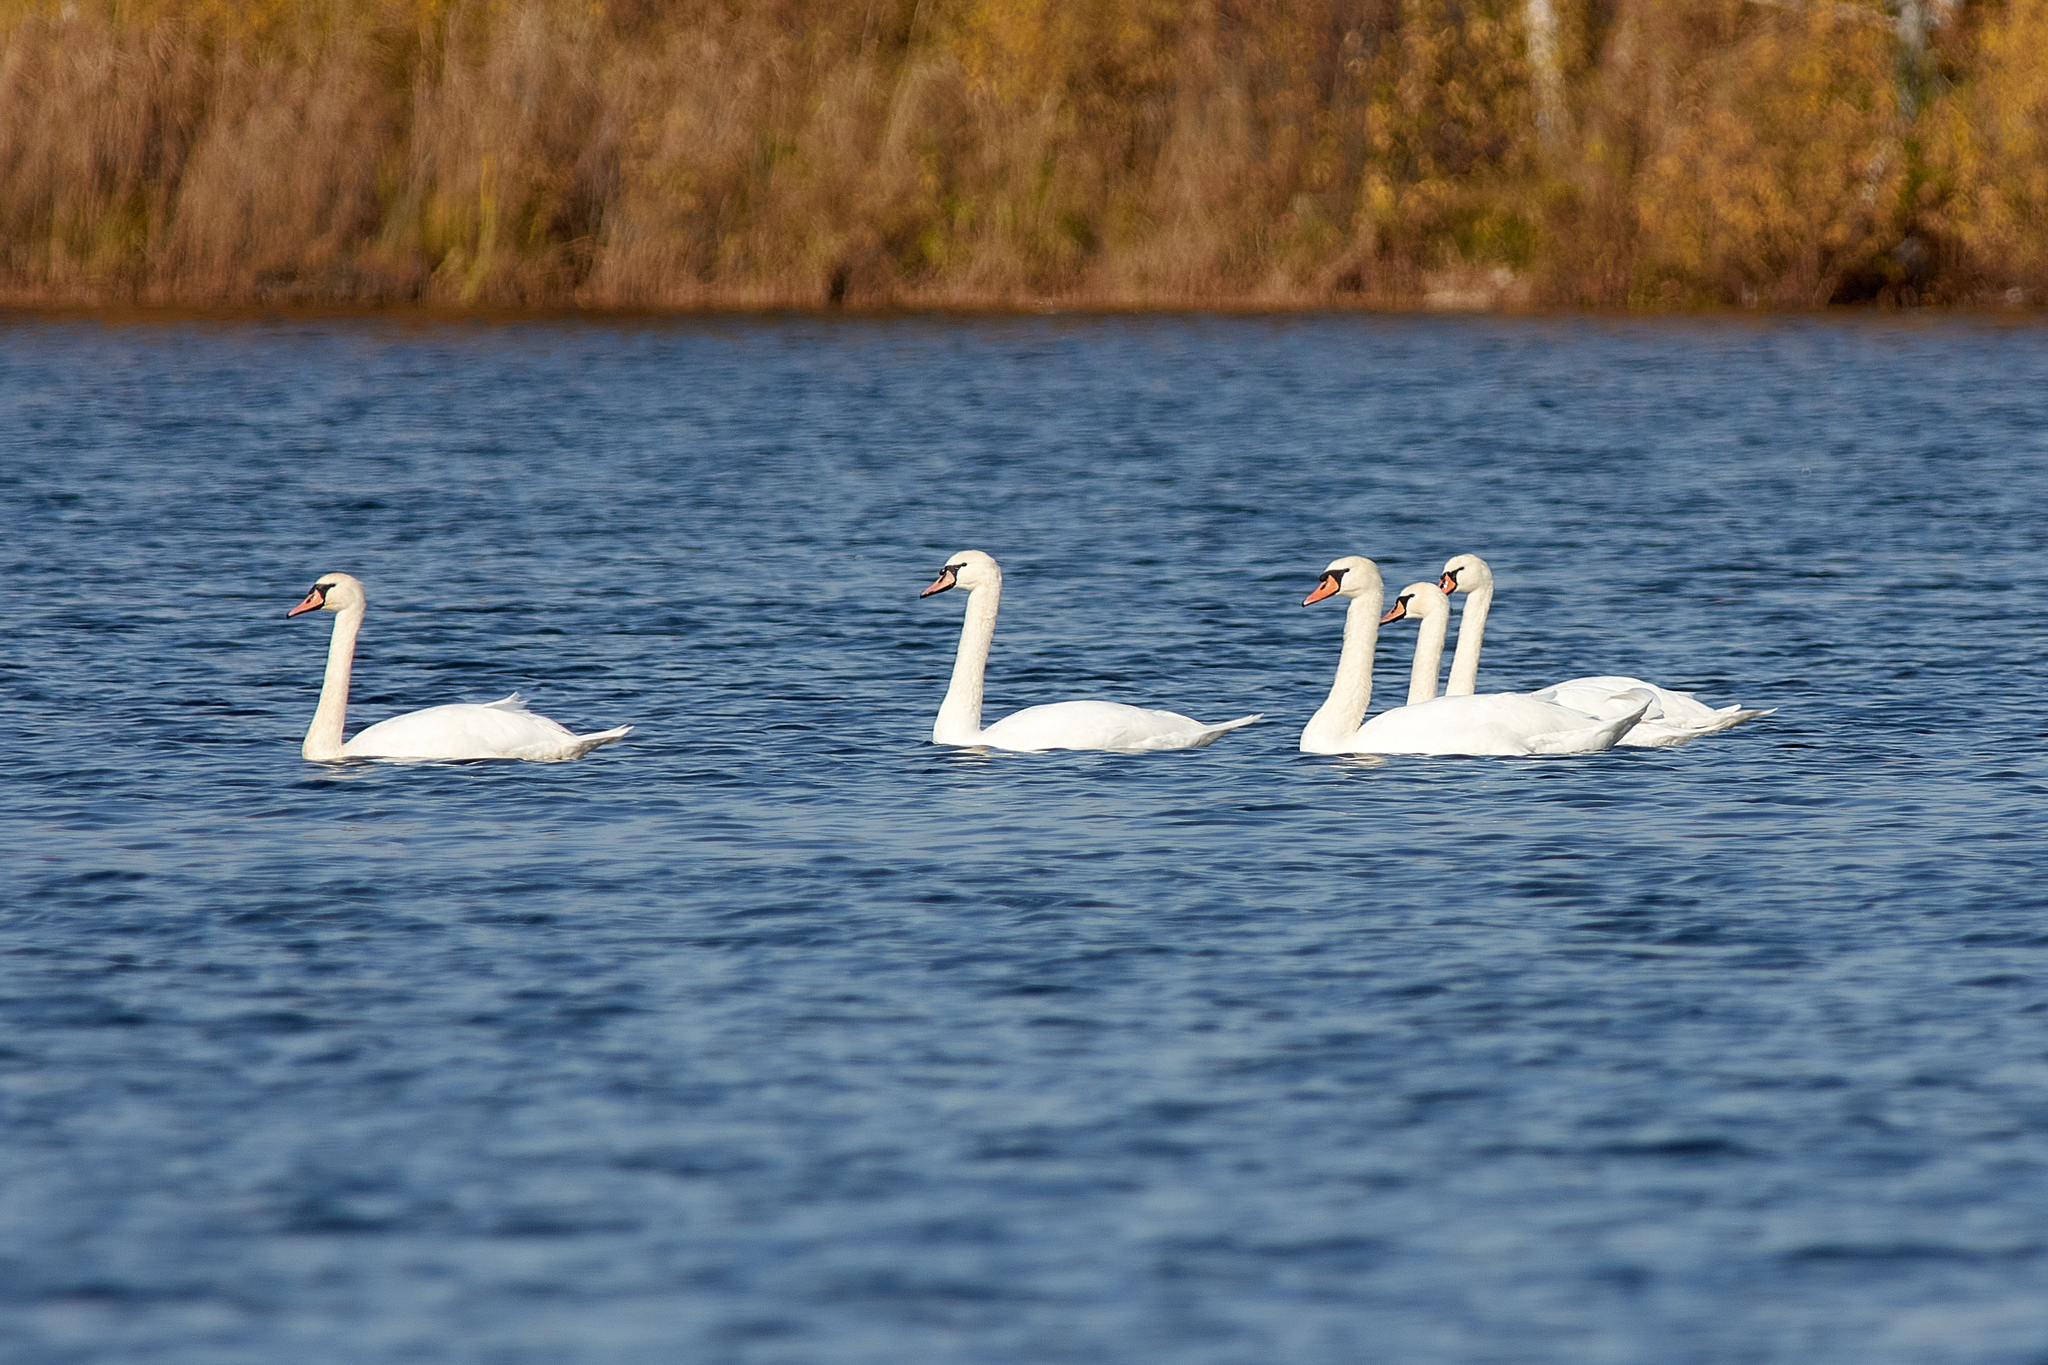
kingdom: Animalia
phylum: Chordata
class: Aves
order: Anseriformes
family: Anatidae
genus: Cygnus
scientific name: Cygnus olor
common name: Mute swan
